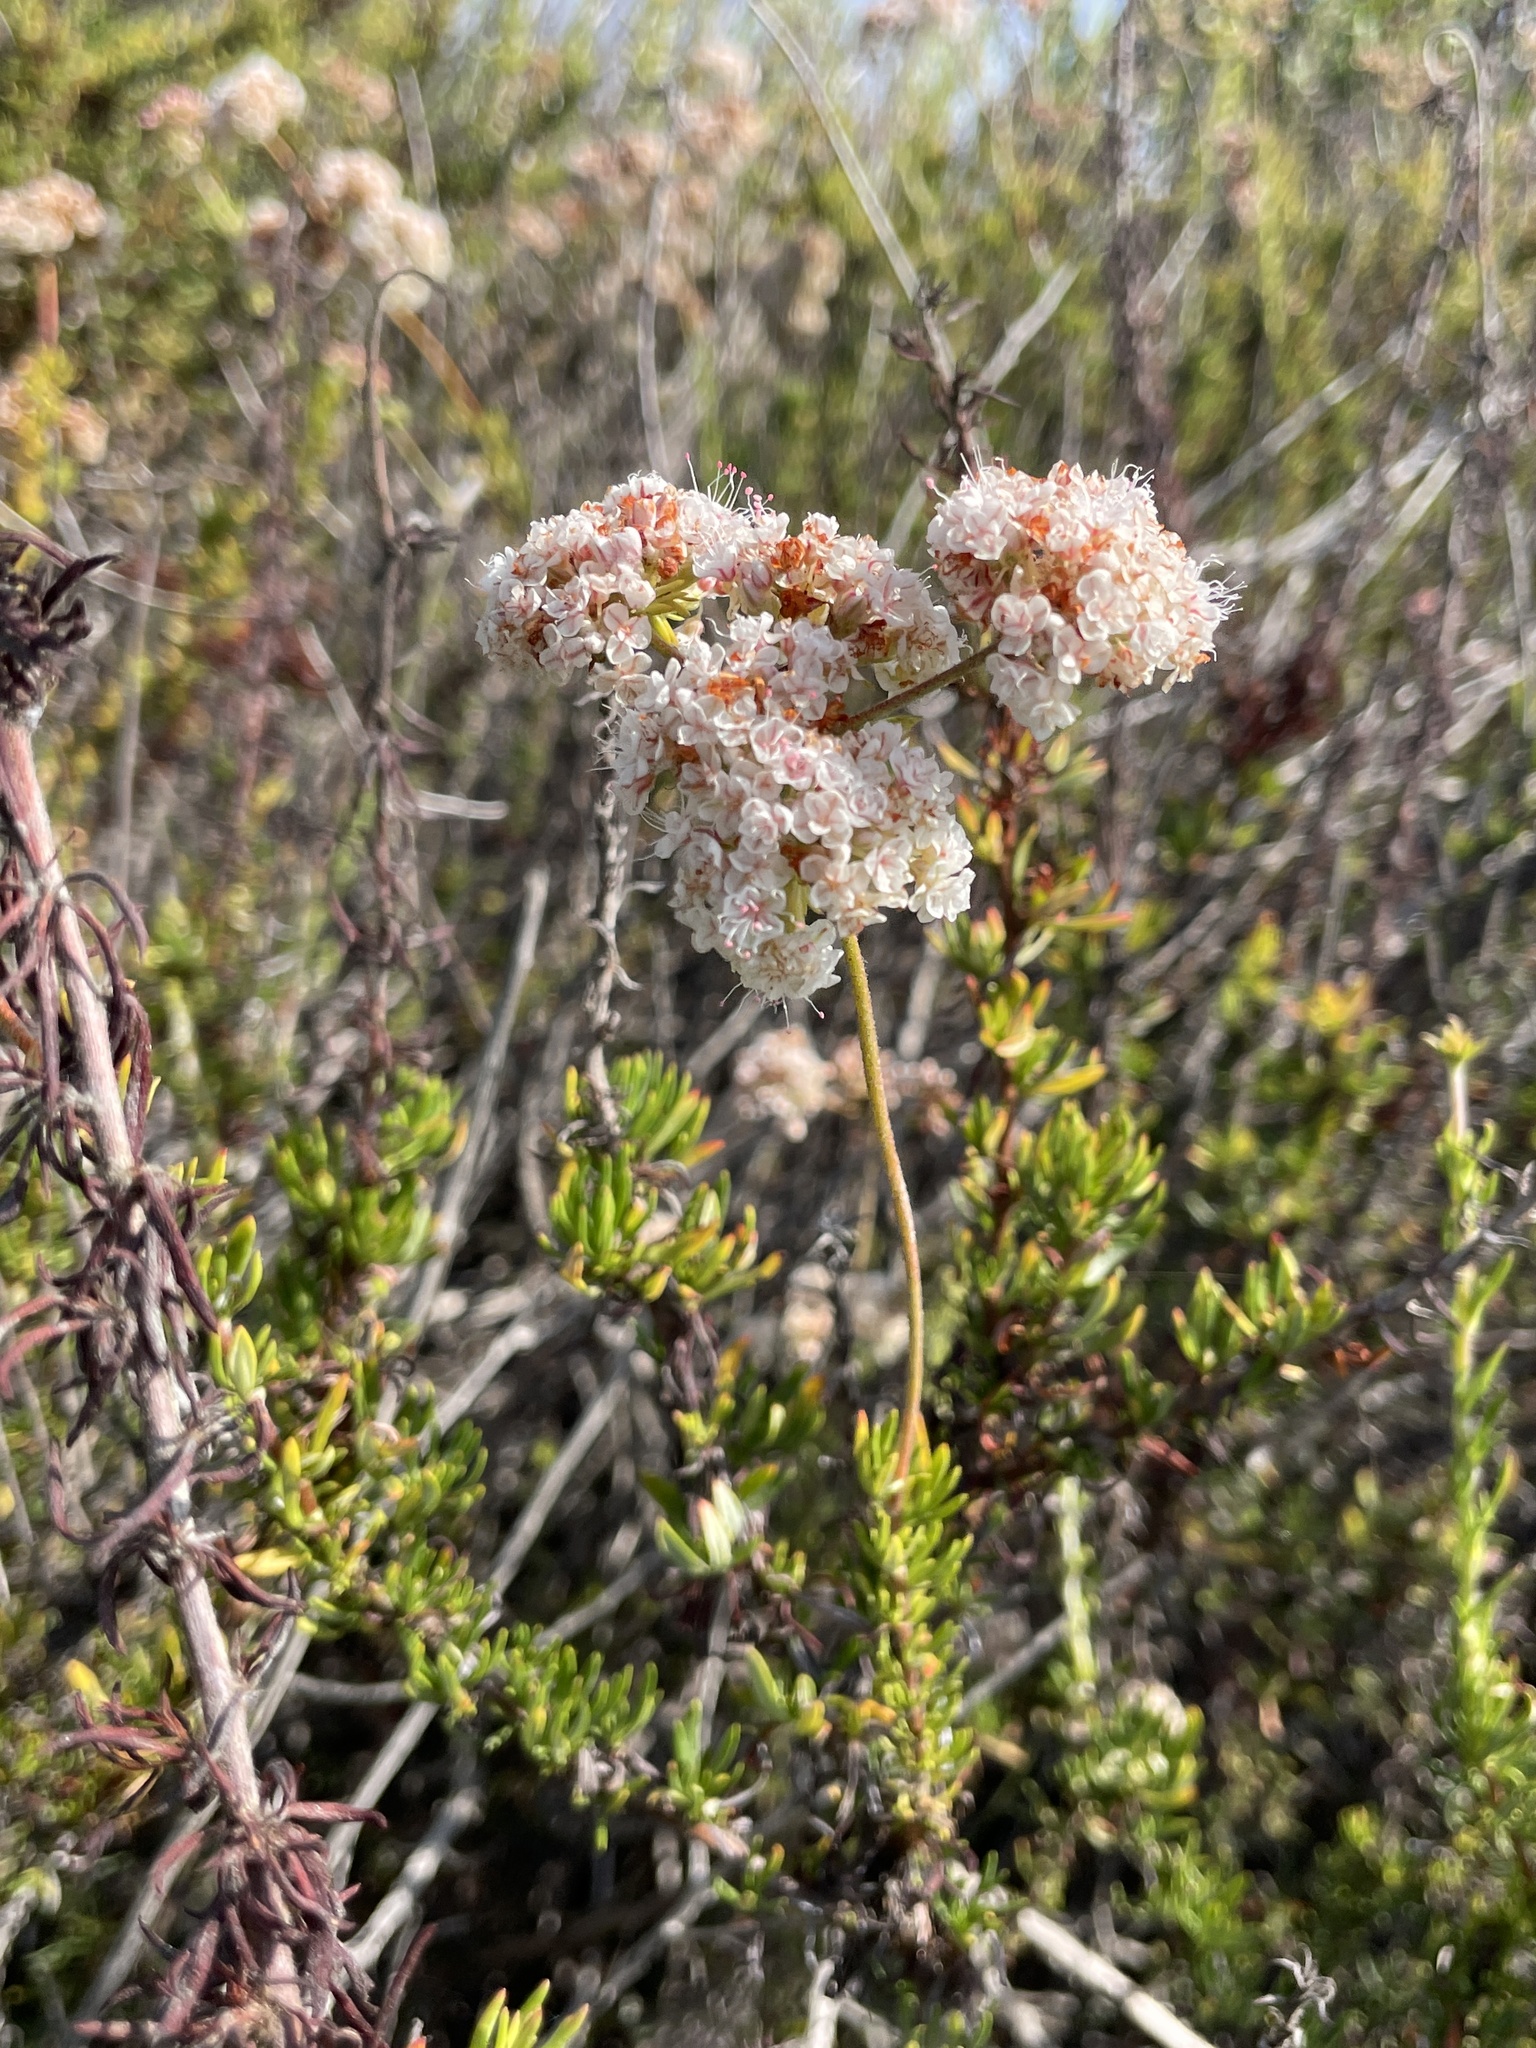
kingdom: Plantae
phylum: Tracheophyta
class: Magnoliopsida
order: Caryophyllales
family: Polygonaceae
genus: Eriogonum
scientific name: Eriogonum fasciculatum
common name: California wild buckwheat
